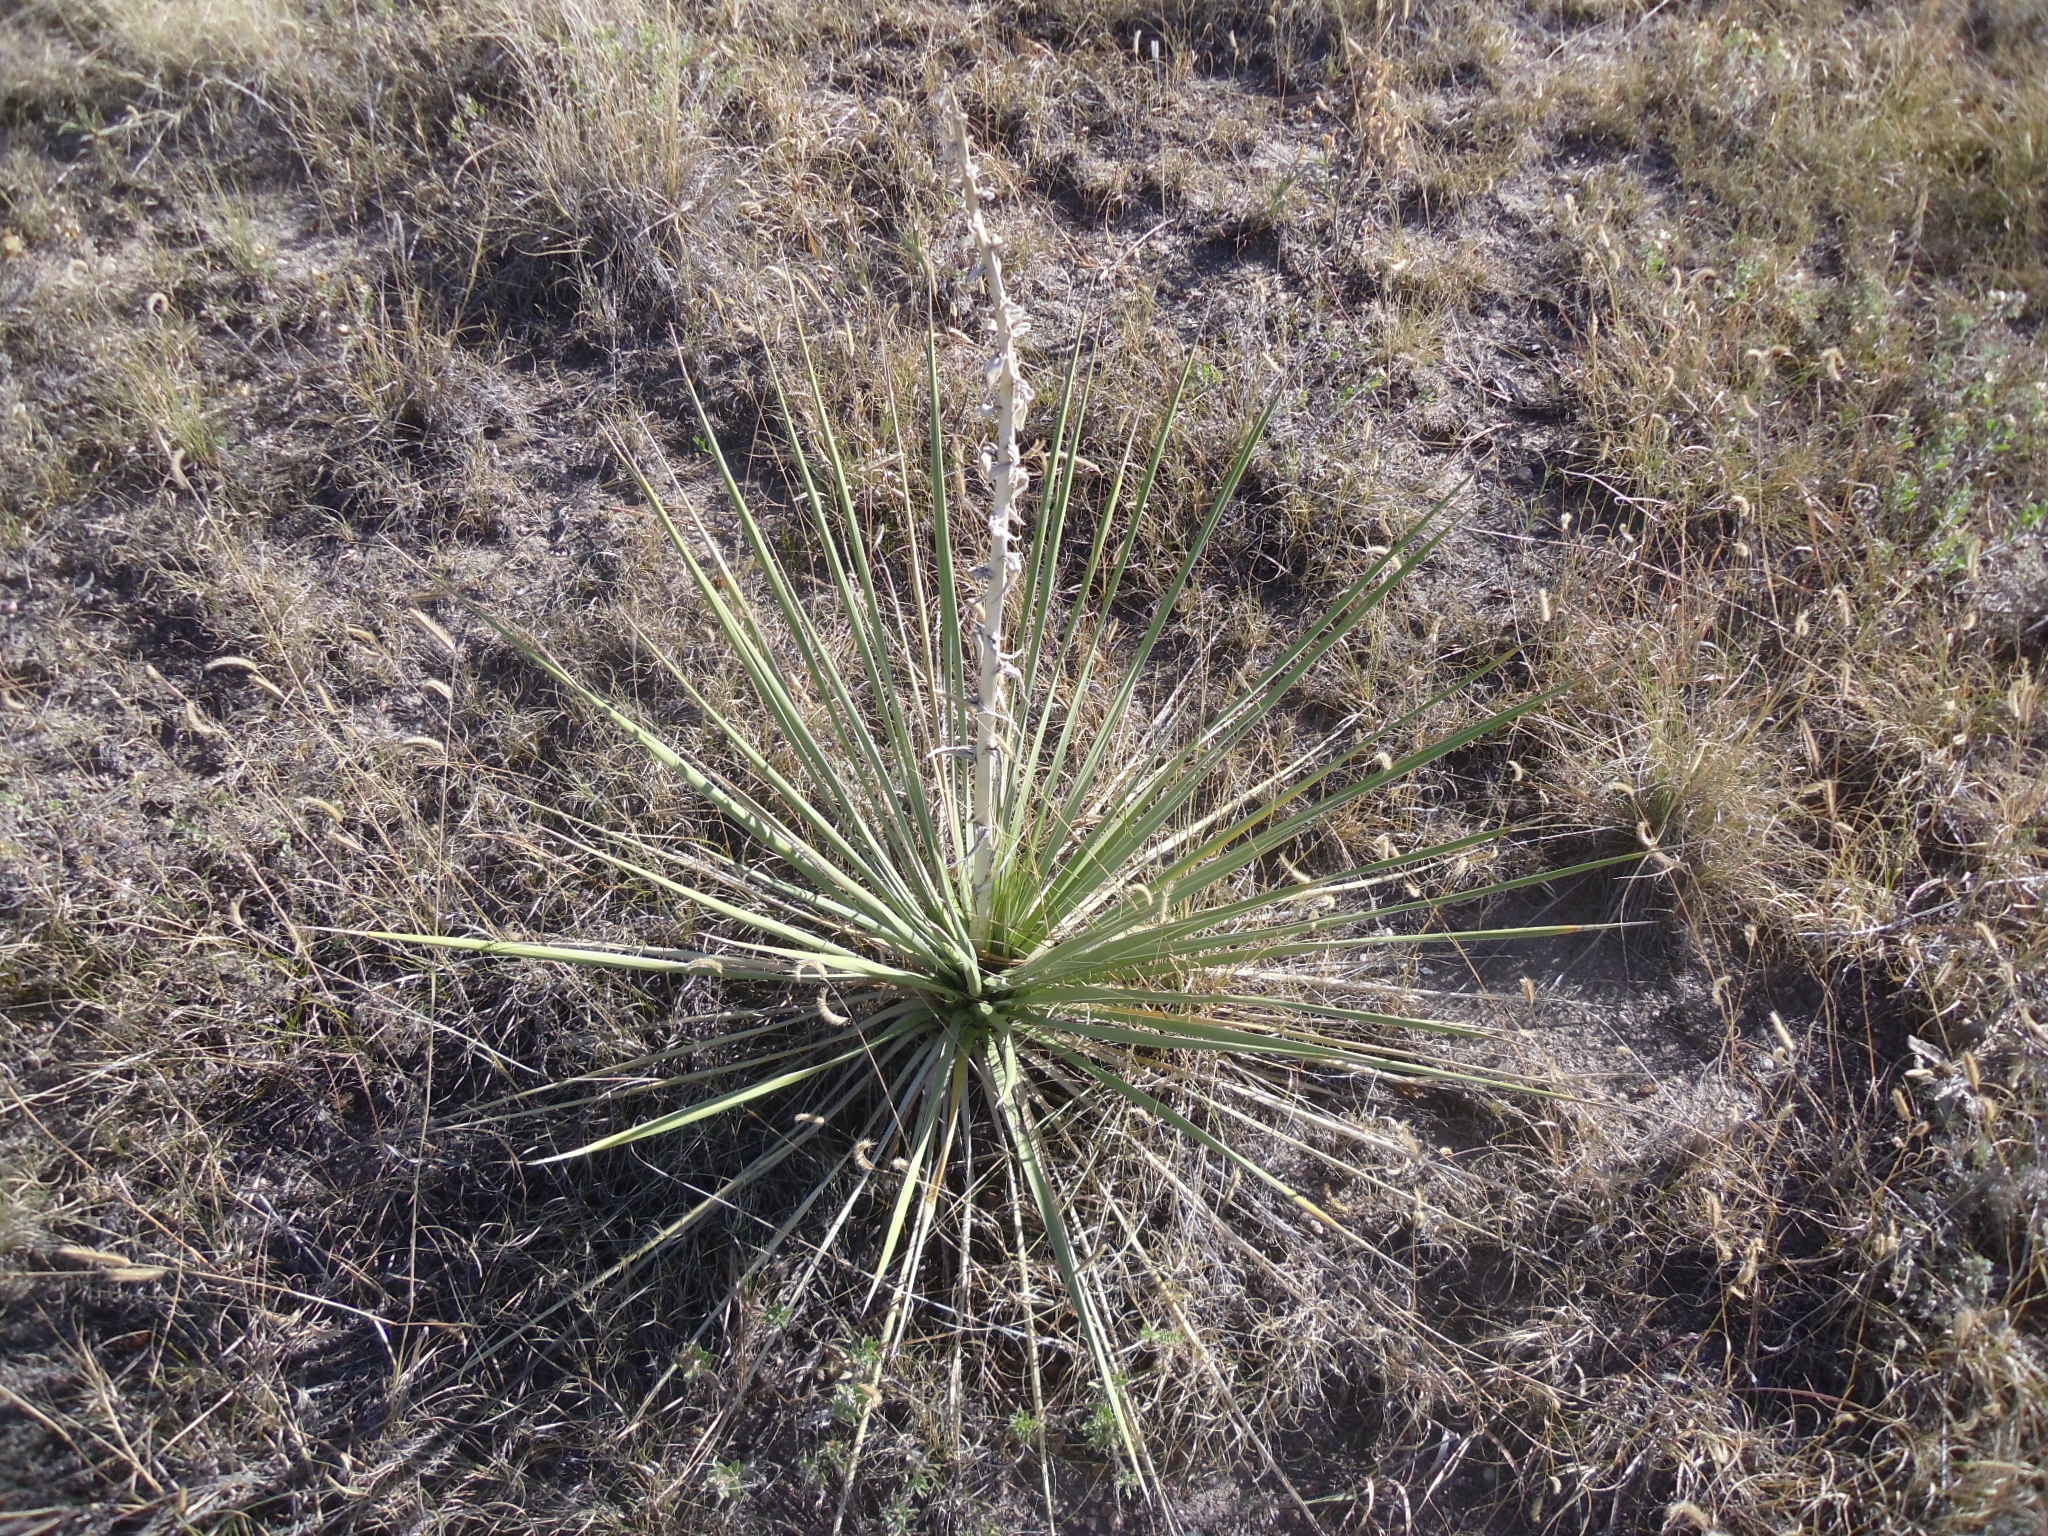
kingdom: Plantae
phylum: Tracheophyta
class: Liliopsida
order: Asparagales
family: Asparagaceae
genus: Yucca
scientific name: Yucca glauca
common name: Great plains yucca
